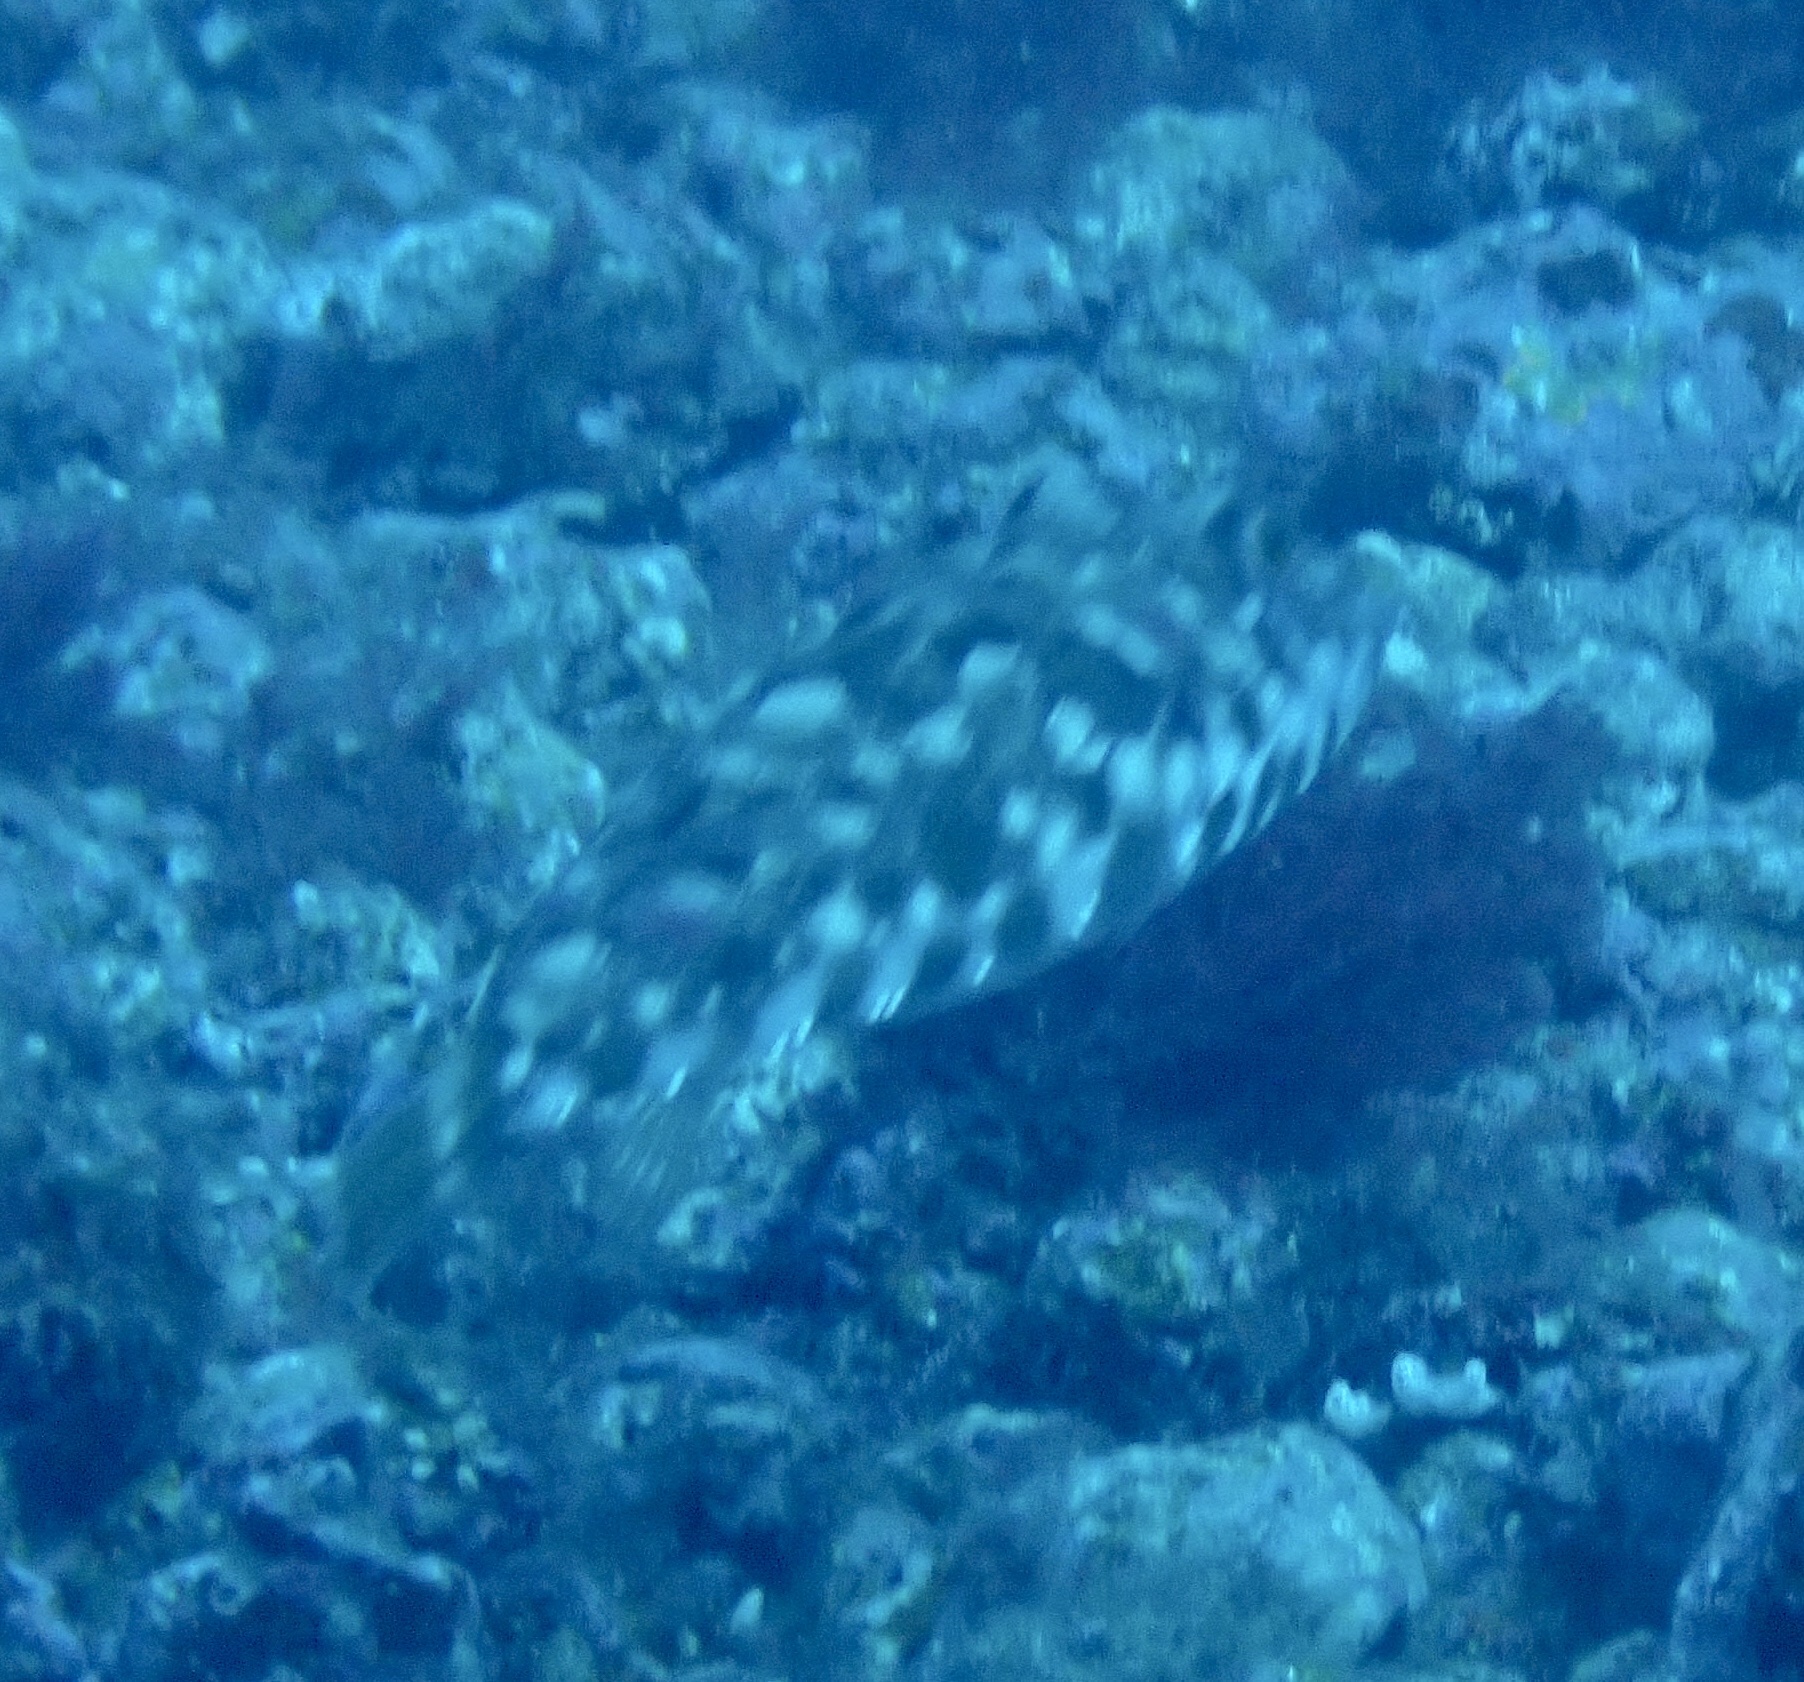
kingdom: Animalia
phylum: Chordata
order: Tetraodontiformes
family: Tetraodontidae
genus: Sphoeroides
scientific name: Sphoeroides marmoratus
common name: Guinean puffer
